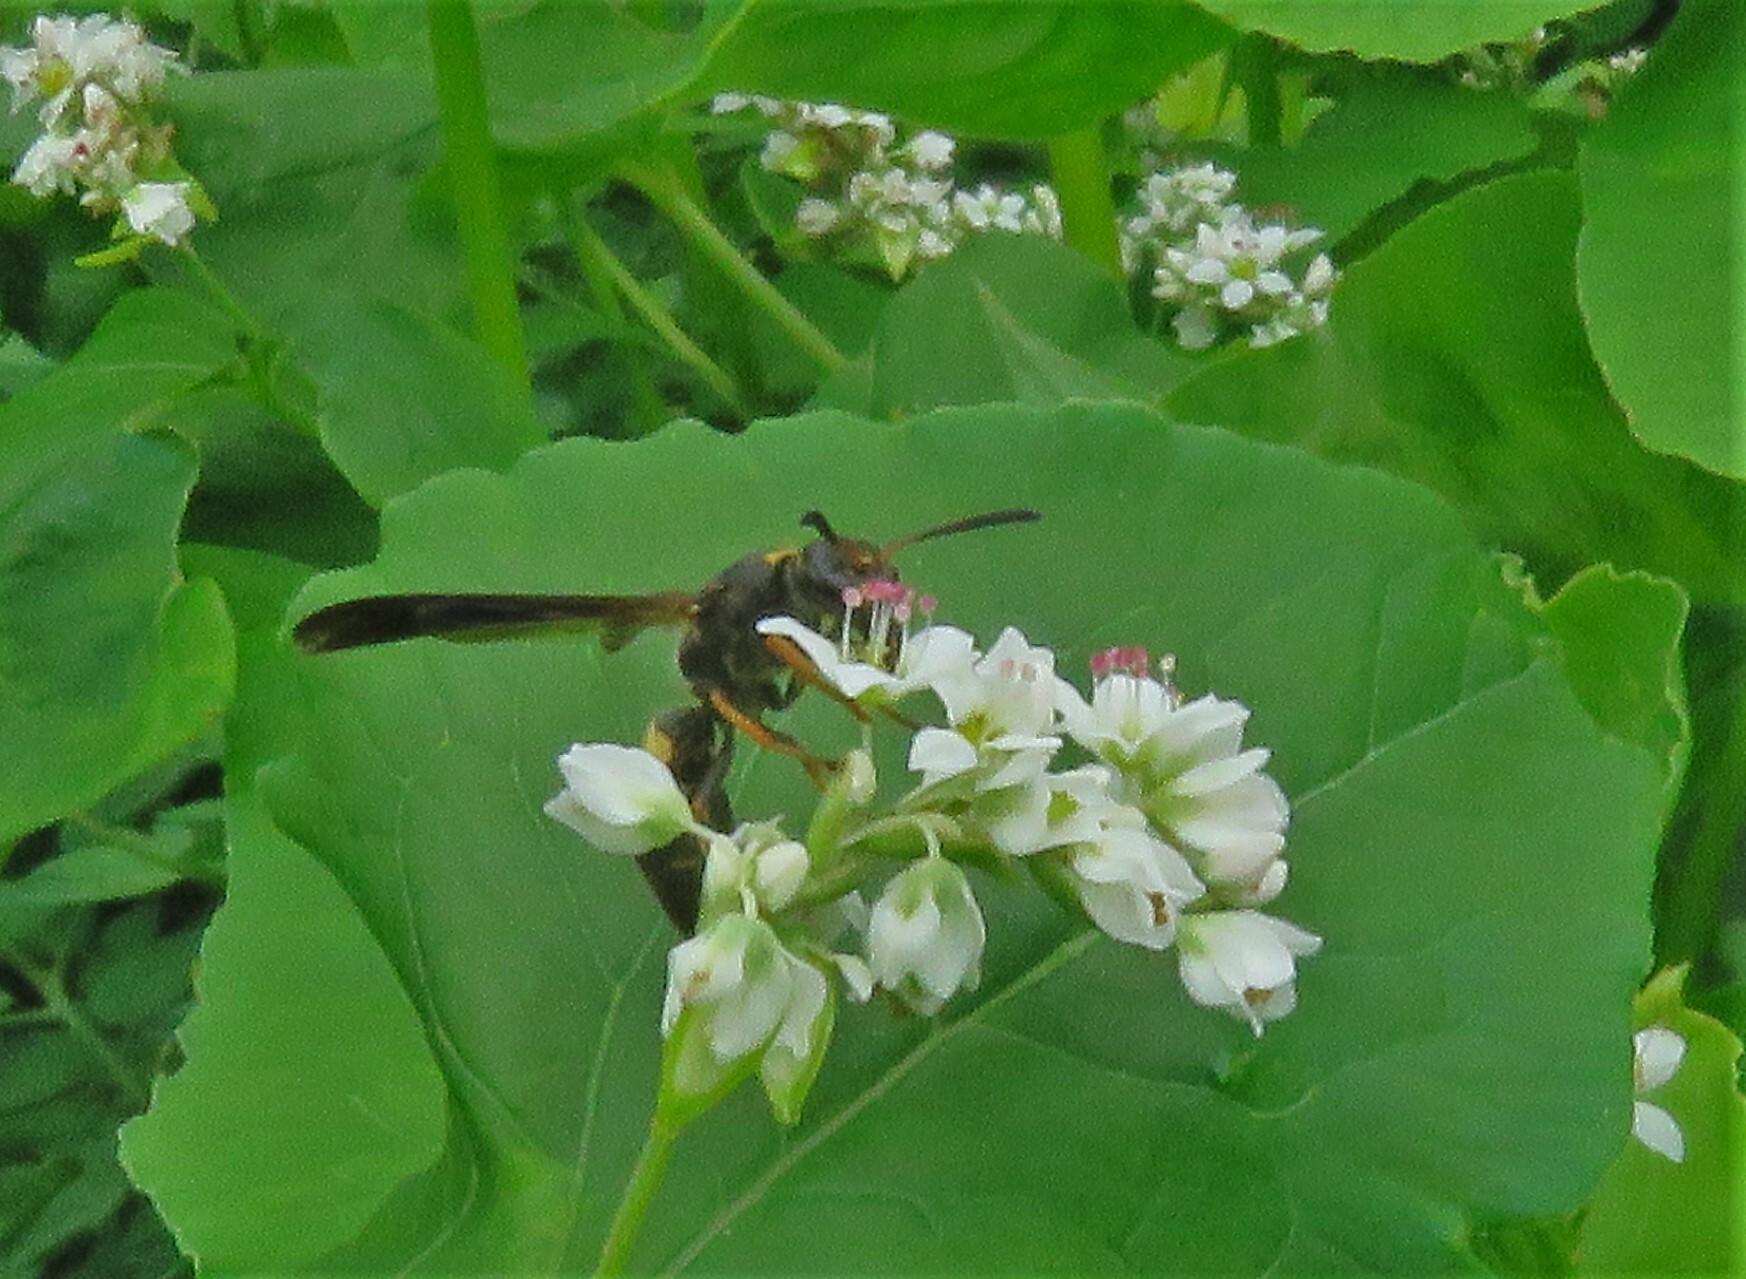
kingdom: Animalia
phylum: Arthropoda
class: Insecta
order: Hymenoptera
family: Vespidae
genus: Ancistrocerus
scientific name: Ancistrocerus unifasciatus
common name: One-banded mason wasp
